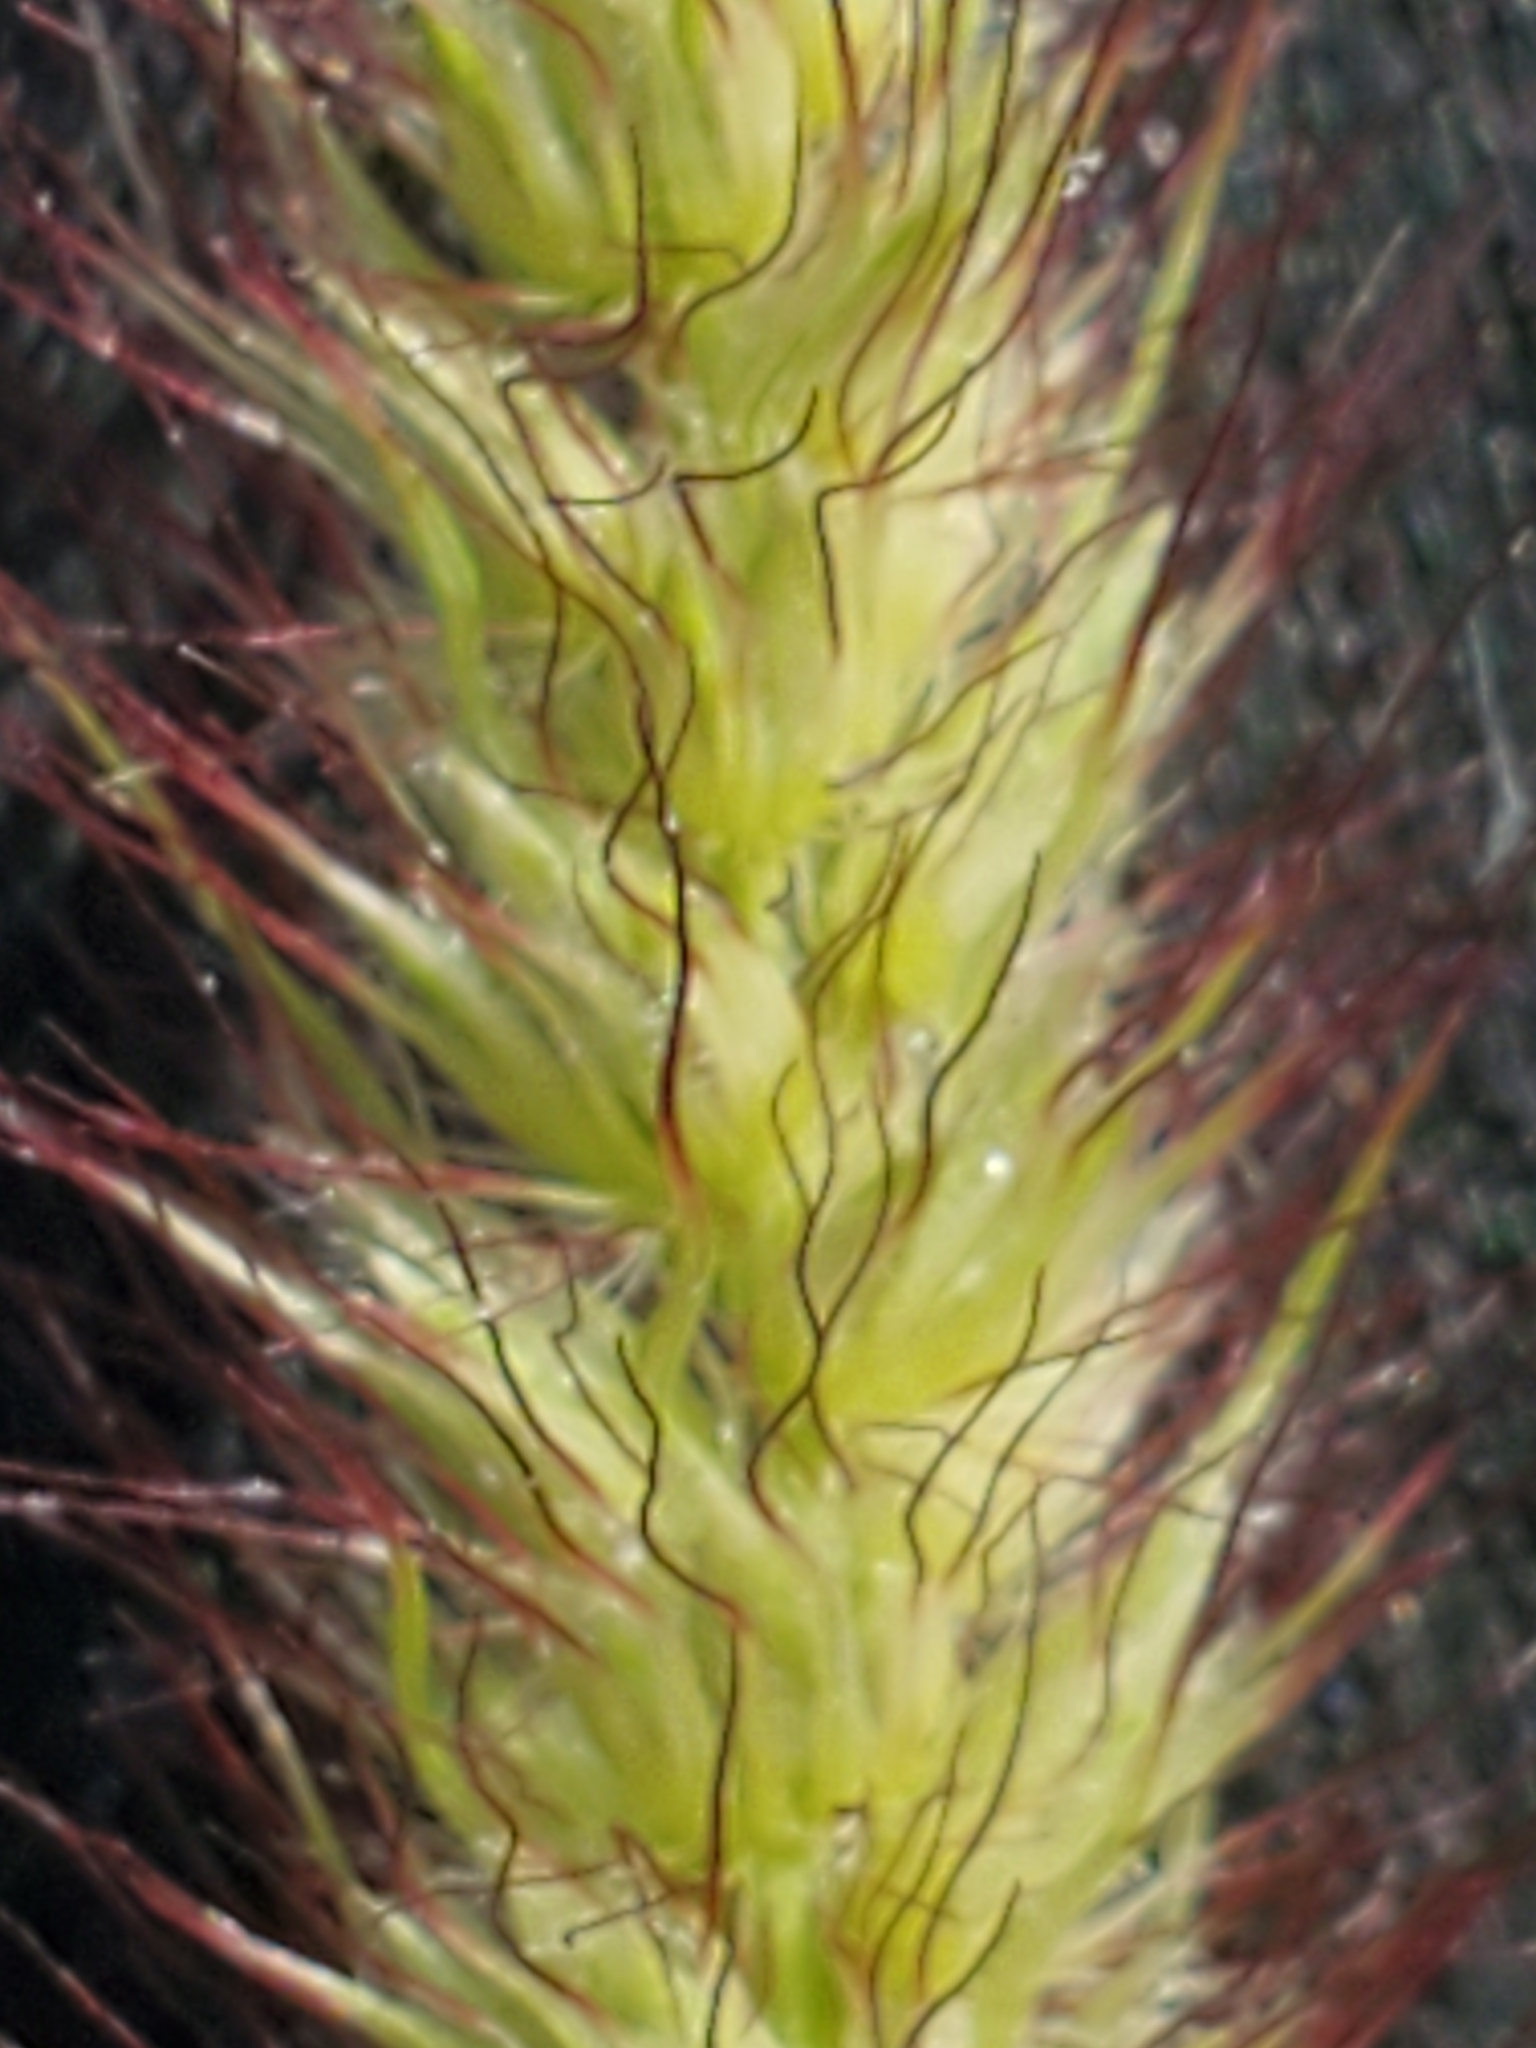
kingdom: Plantae
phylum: Tracheophyta
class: Liliopsida
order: Poales
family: Poaceae
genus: Cenchrus
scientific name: Cenchrus ciliaris
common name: Buffelgrass
